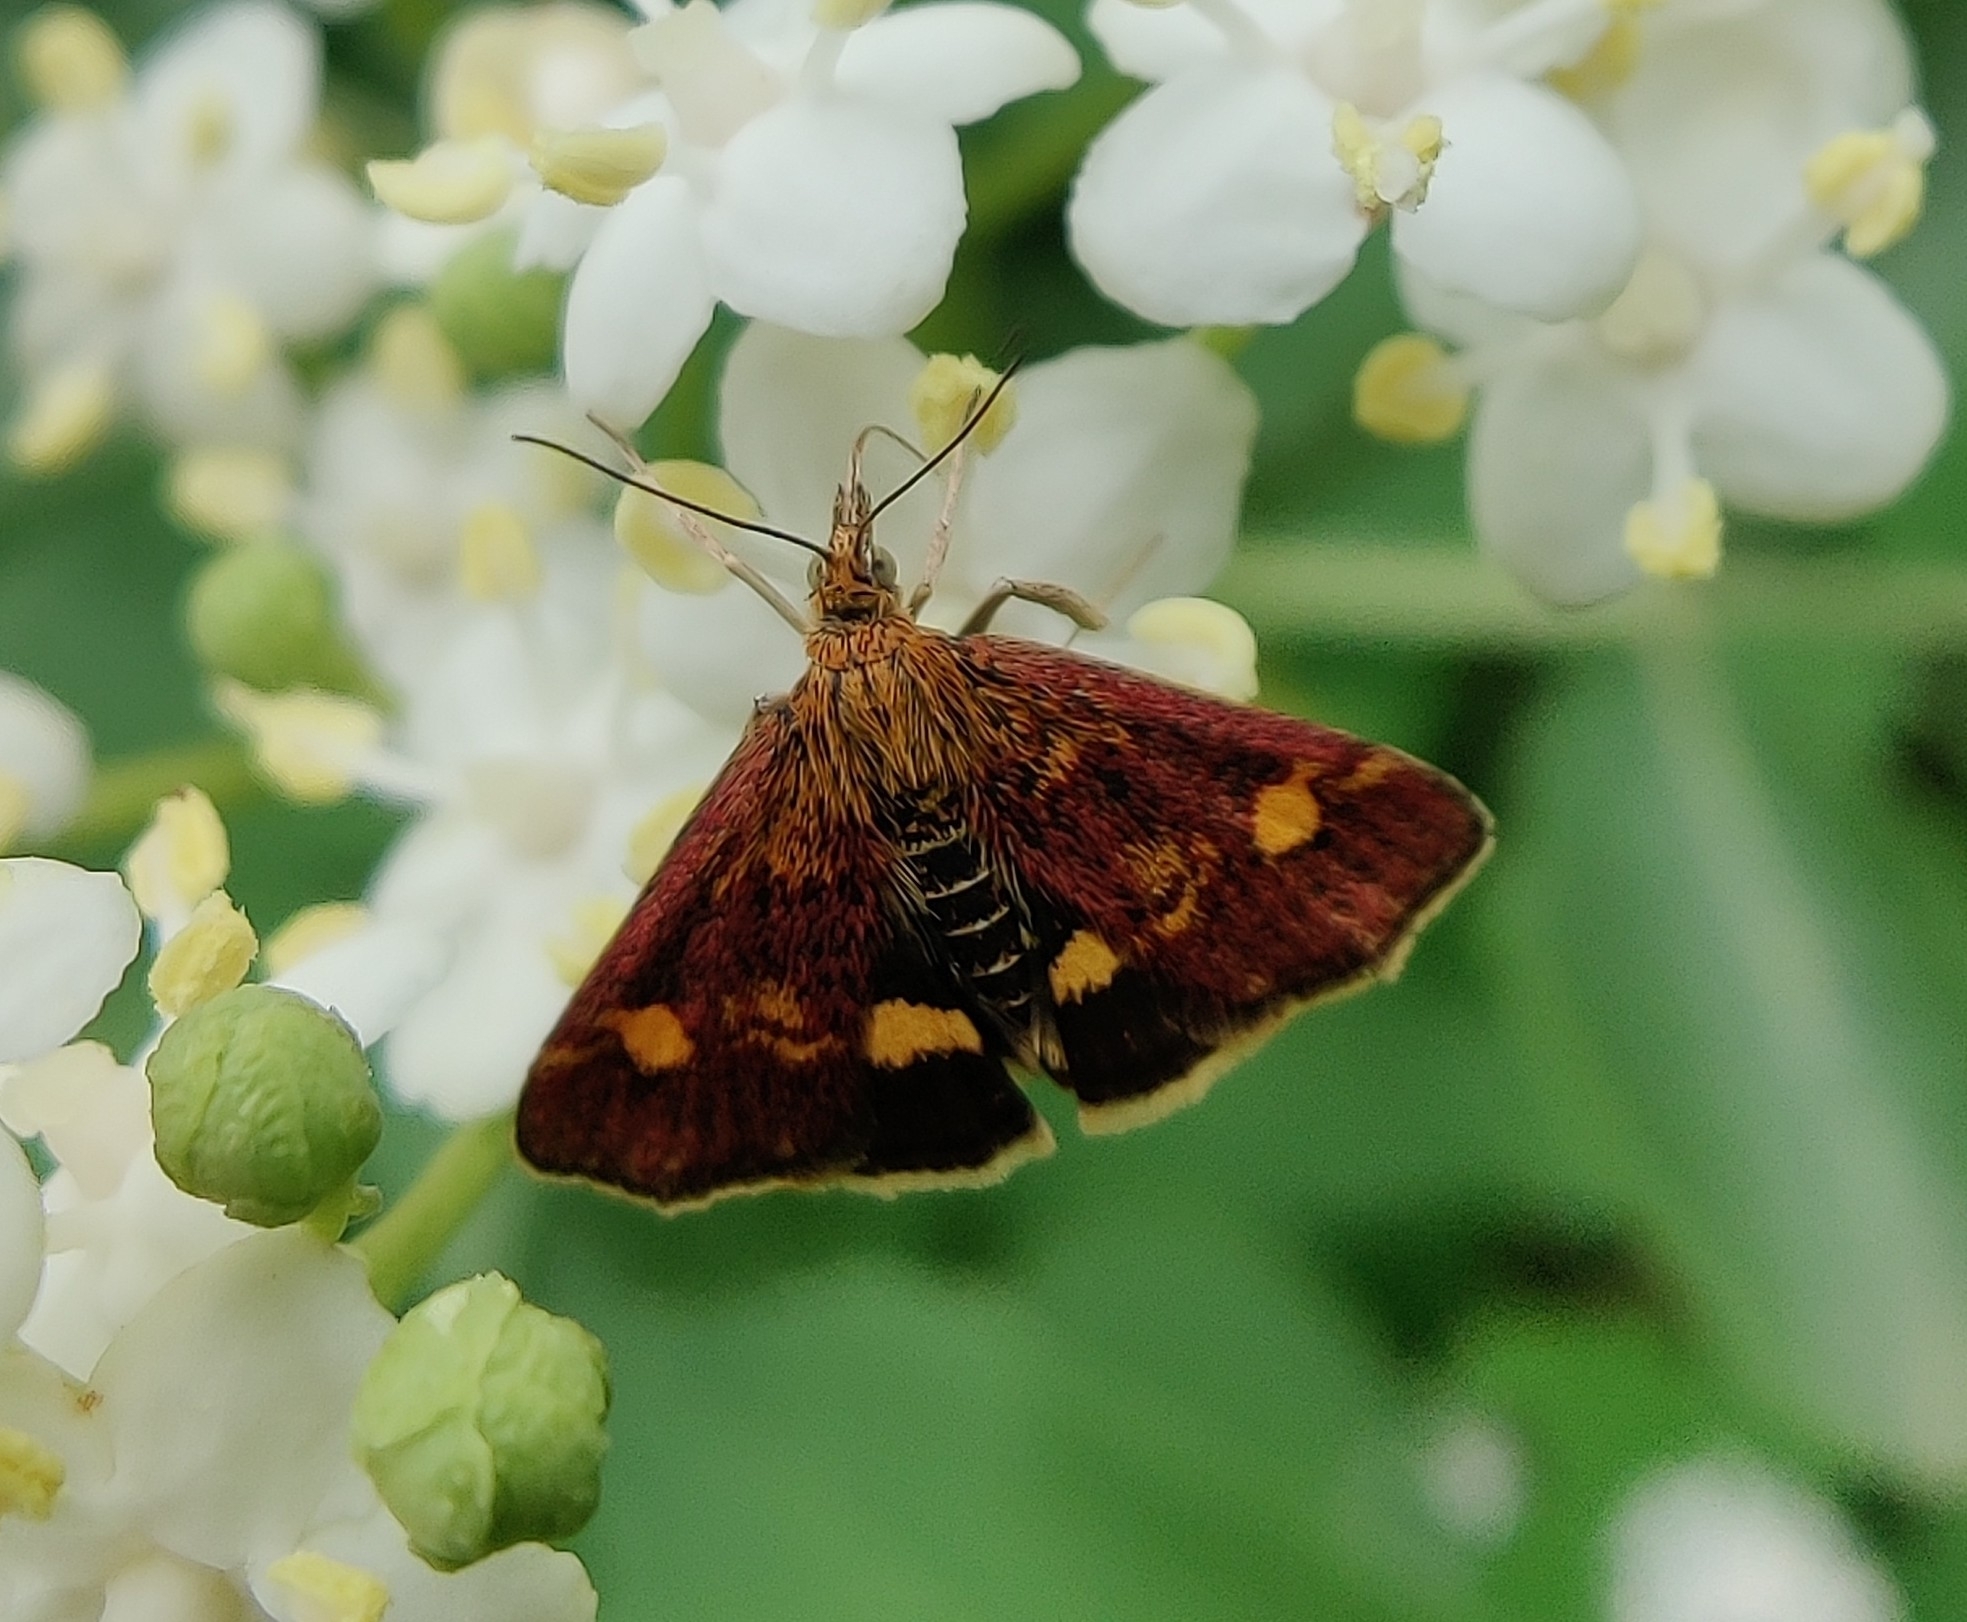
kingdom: Animalia
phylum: Arthropoda
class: Insecta
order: Lepidoptera
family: Crambidae
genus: Pyrausta
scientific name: Pyrausta aurata
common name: Small purple & gold
